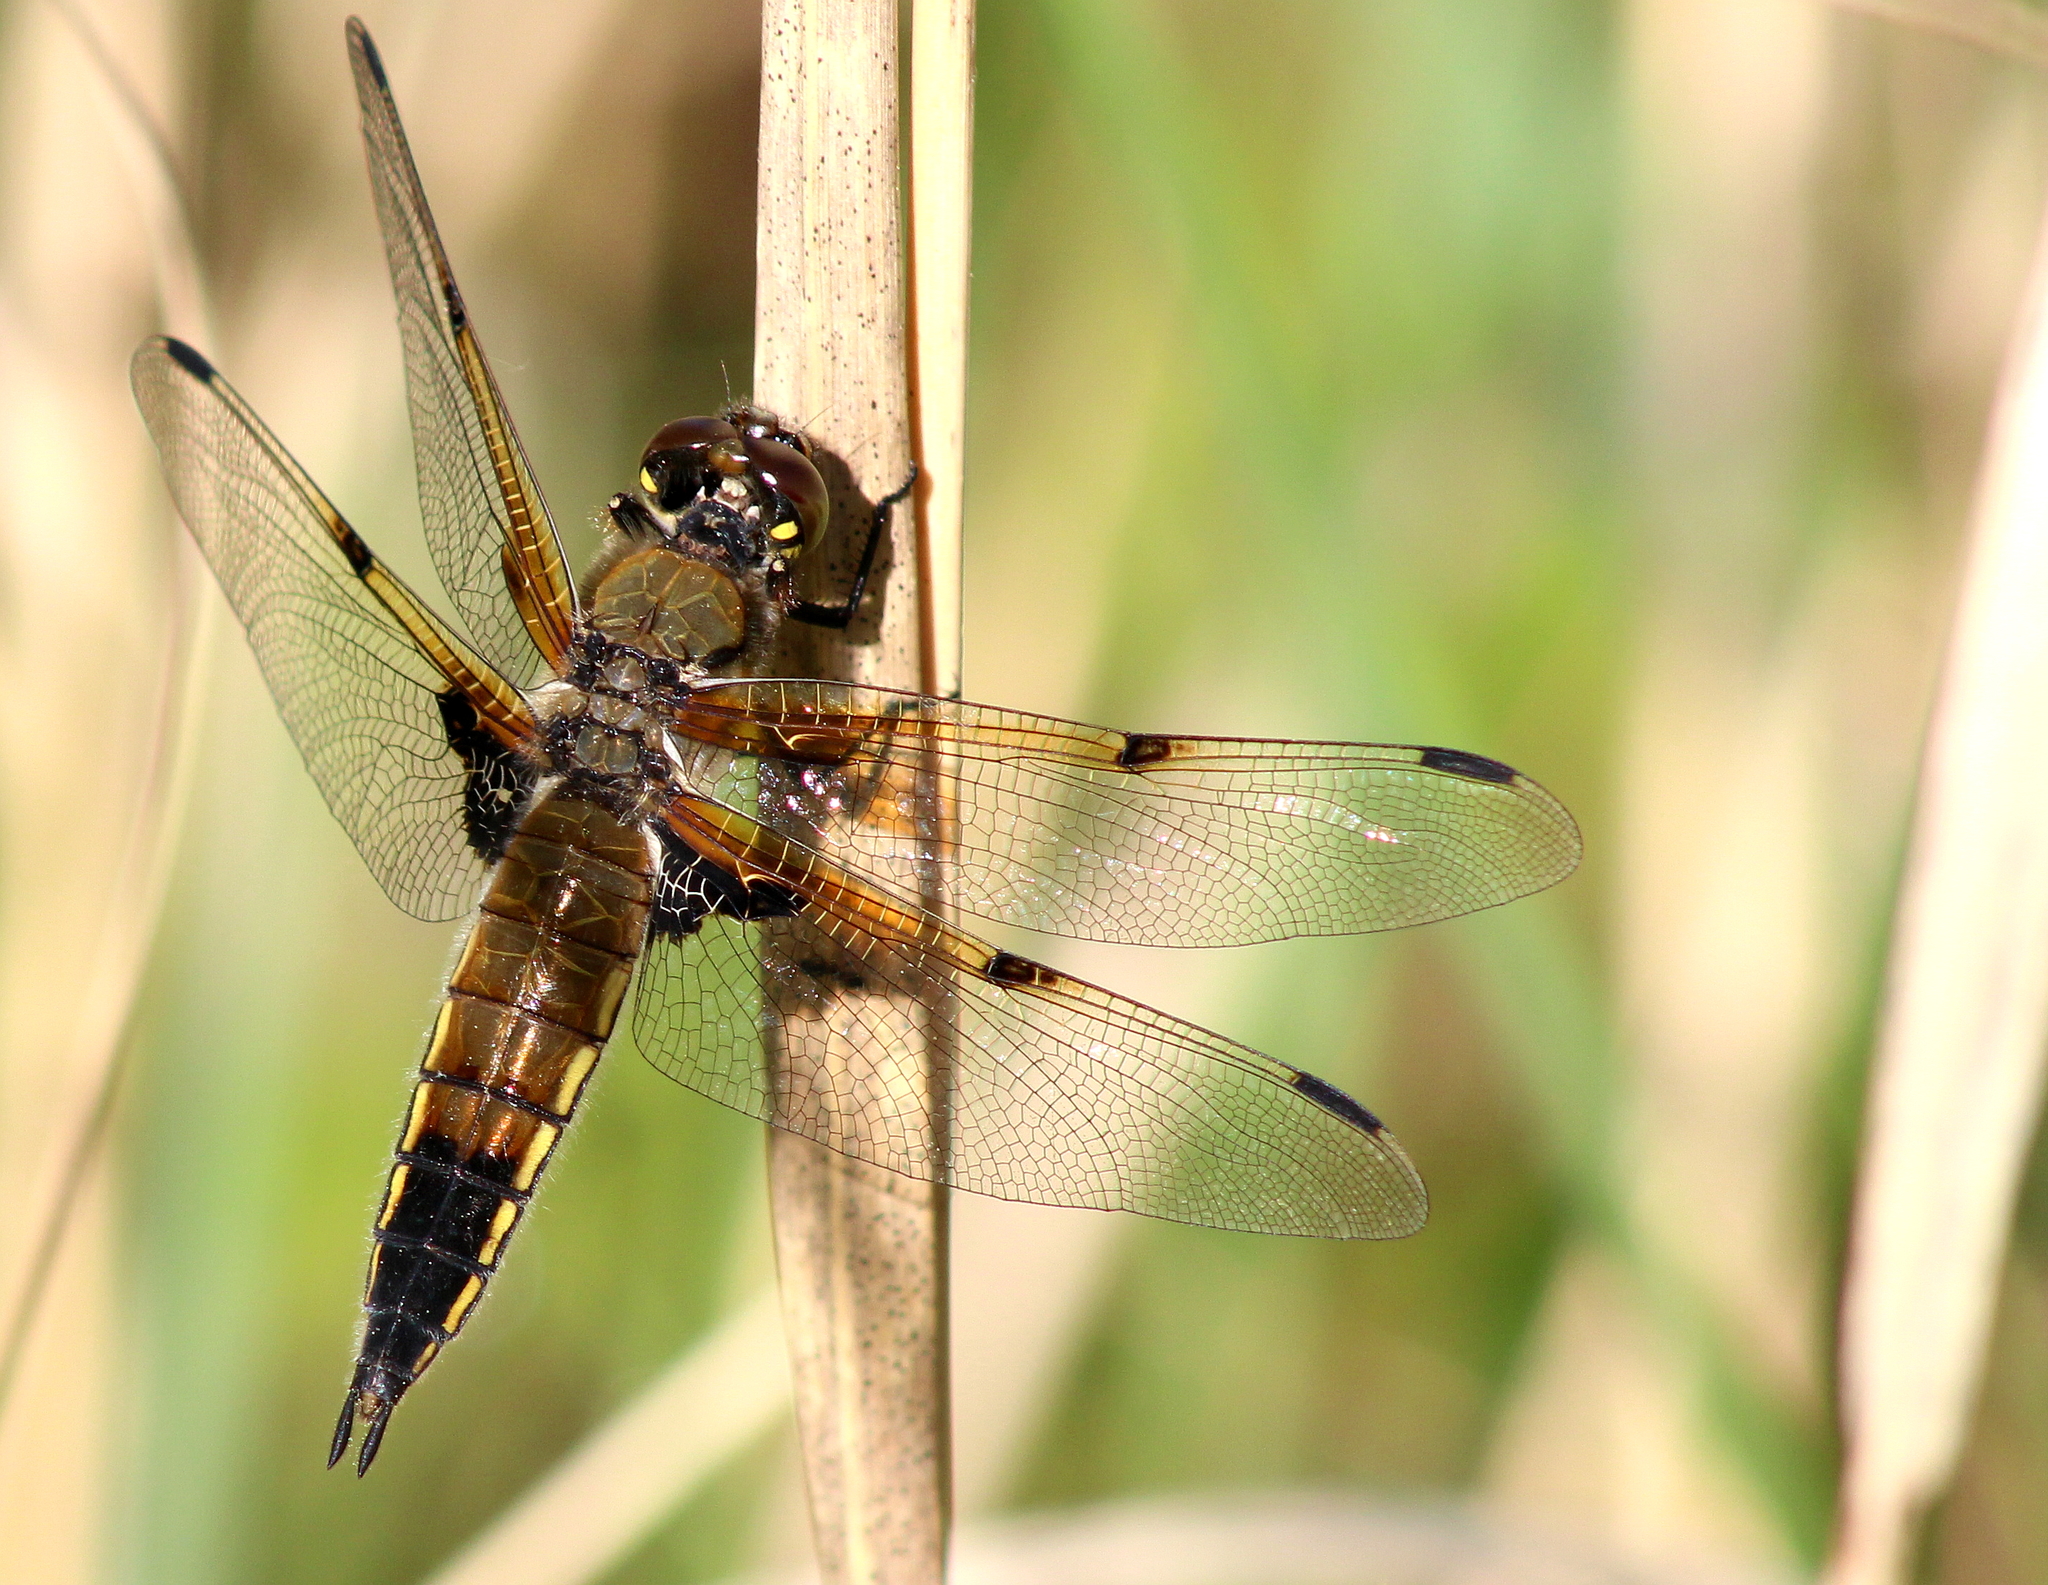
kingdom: Animalia
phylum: Arthropoda
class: Insecta
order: Odonata
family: Libellulidae
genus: Libellula
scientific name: Libellula quadrimaculata
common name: Four-spotted chaser
